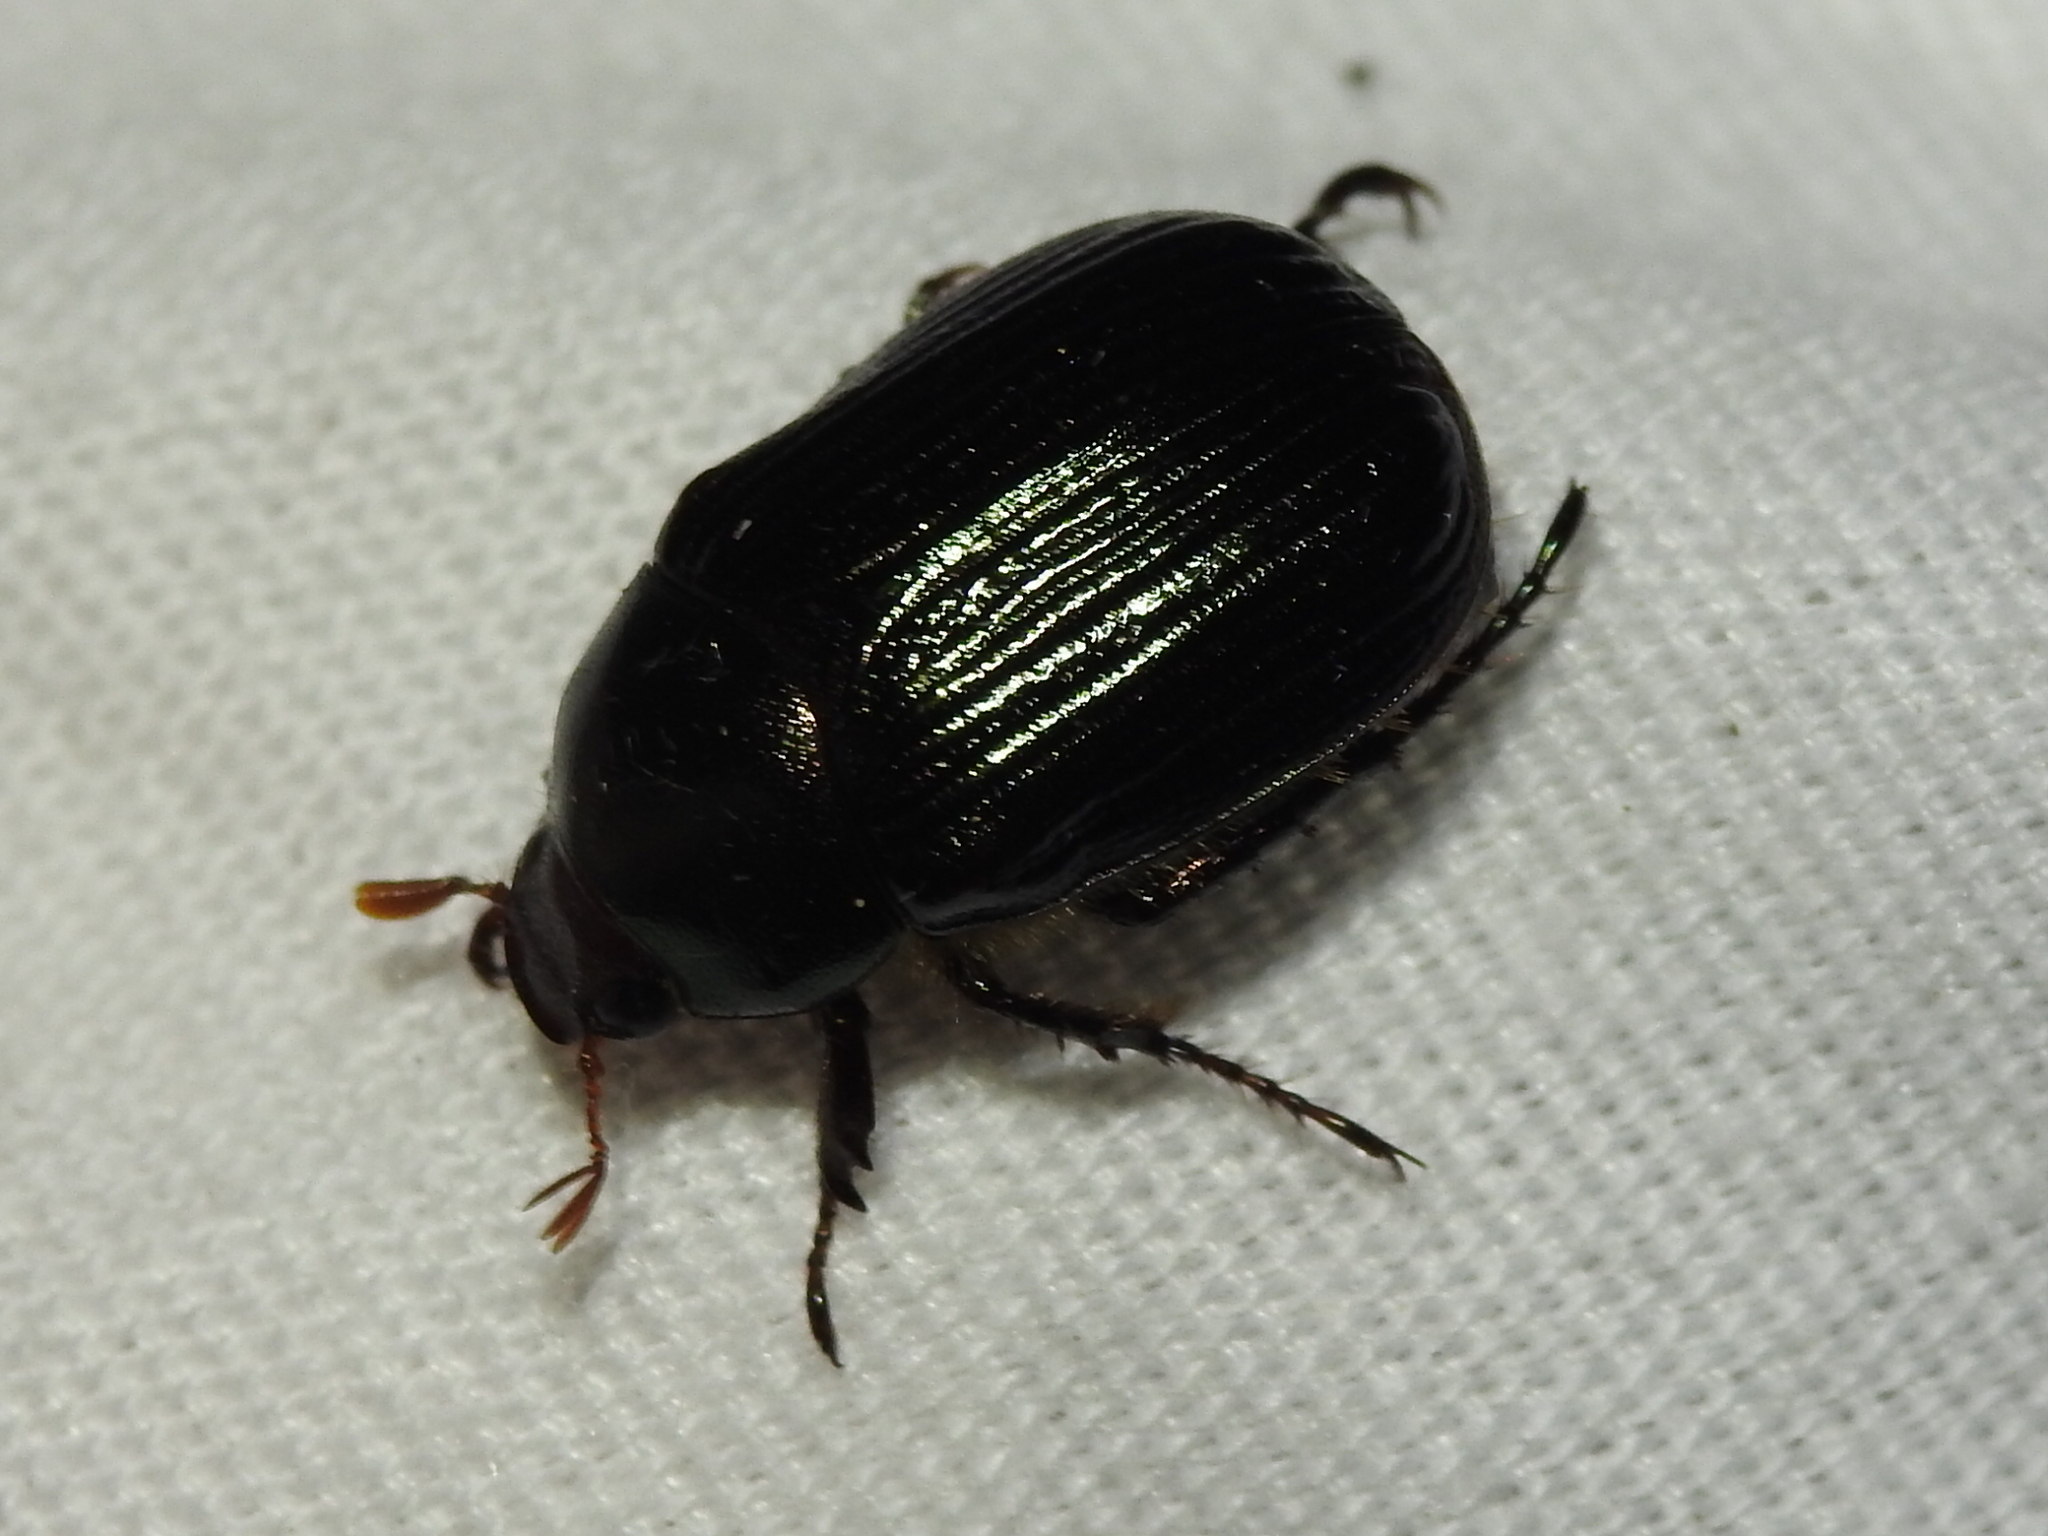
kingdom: Animalia
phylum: Arthropoda
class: Insecta
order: Coleoptera
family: Scarabaeidae
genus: Anomala
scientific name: Anomala insitiva
